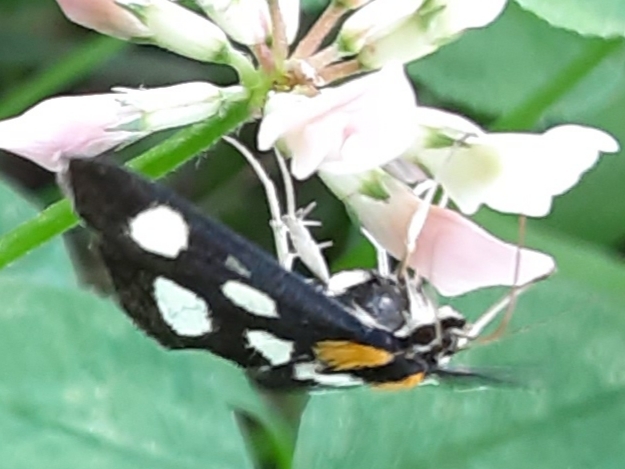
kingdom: Animalia
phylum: Arthropoda
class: Insecta
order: Lepidoptera
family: Crambidae
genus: Anania
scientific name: Anania funebris
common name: White-spotted sable moth
